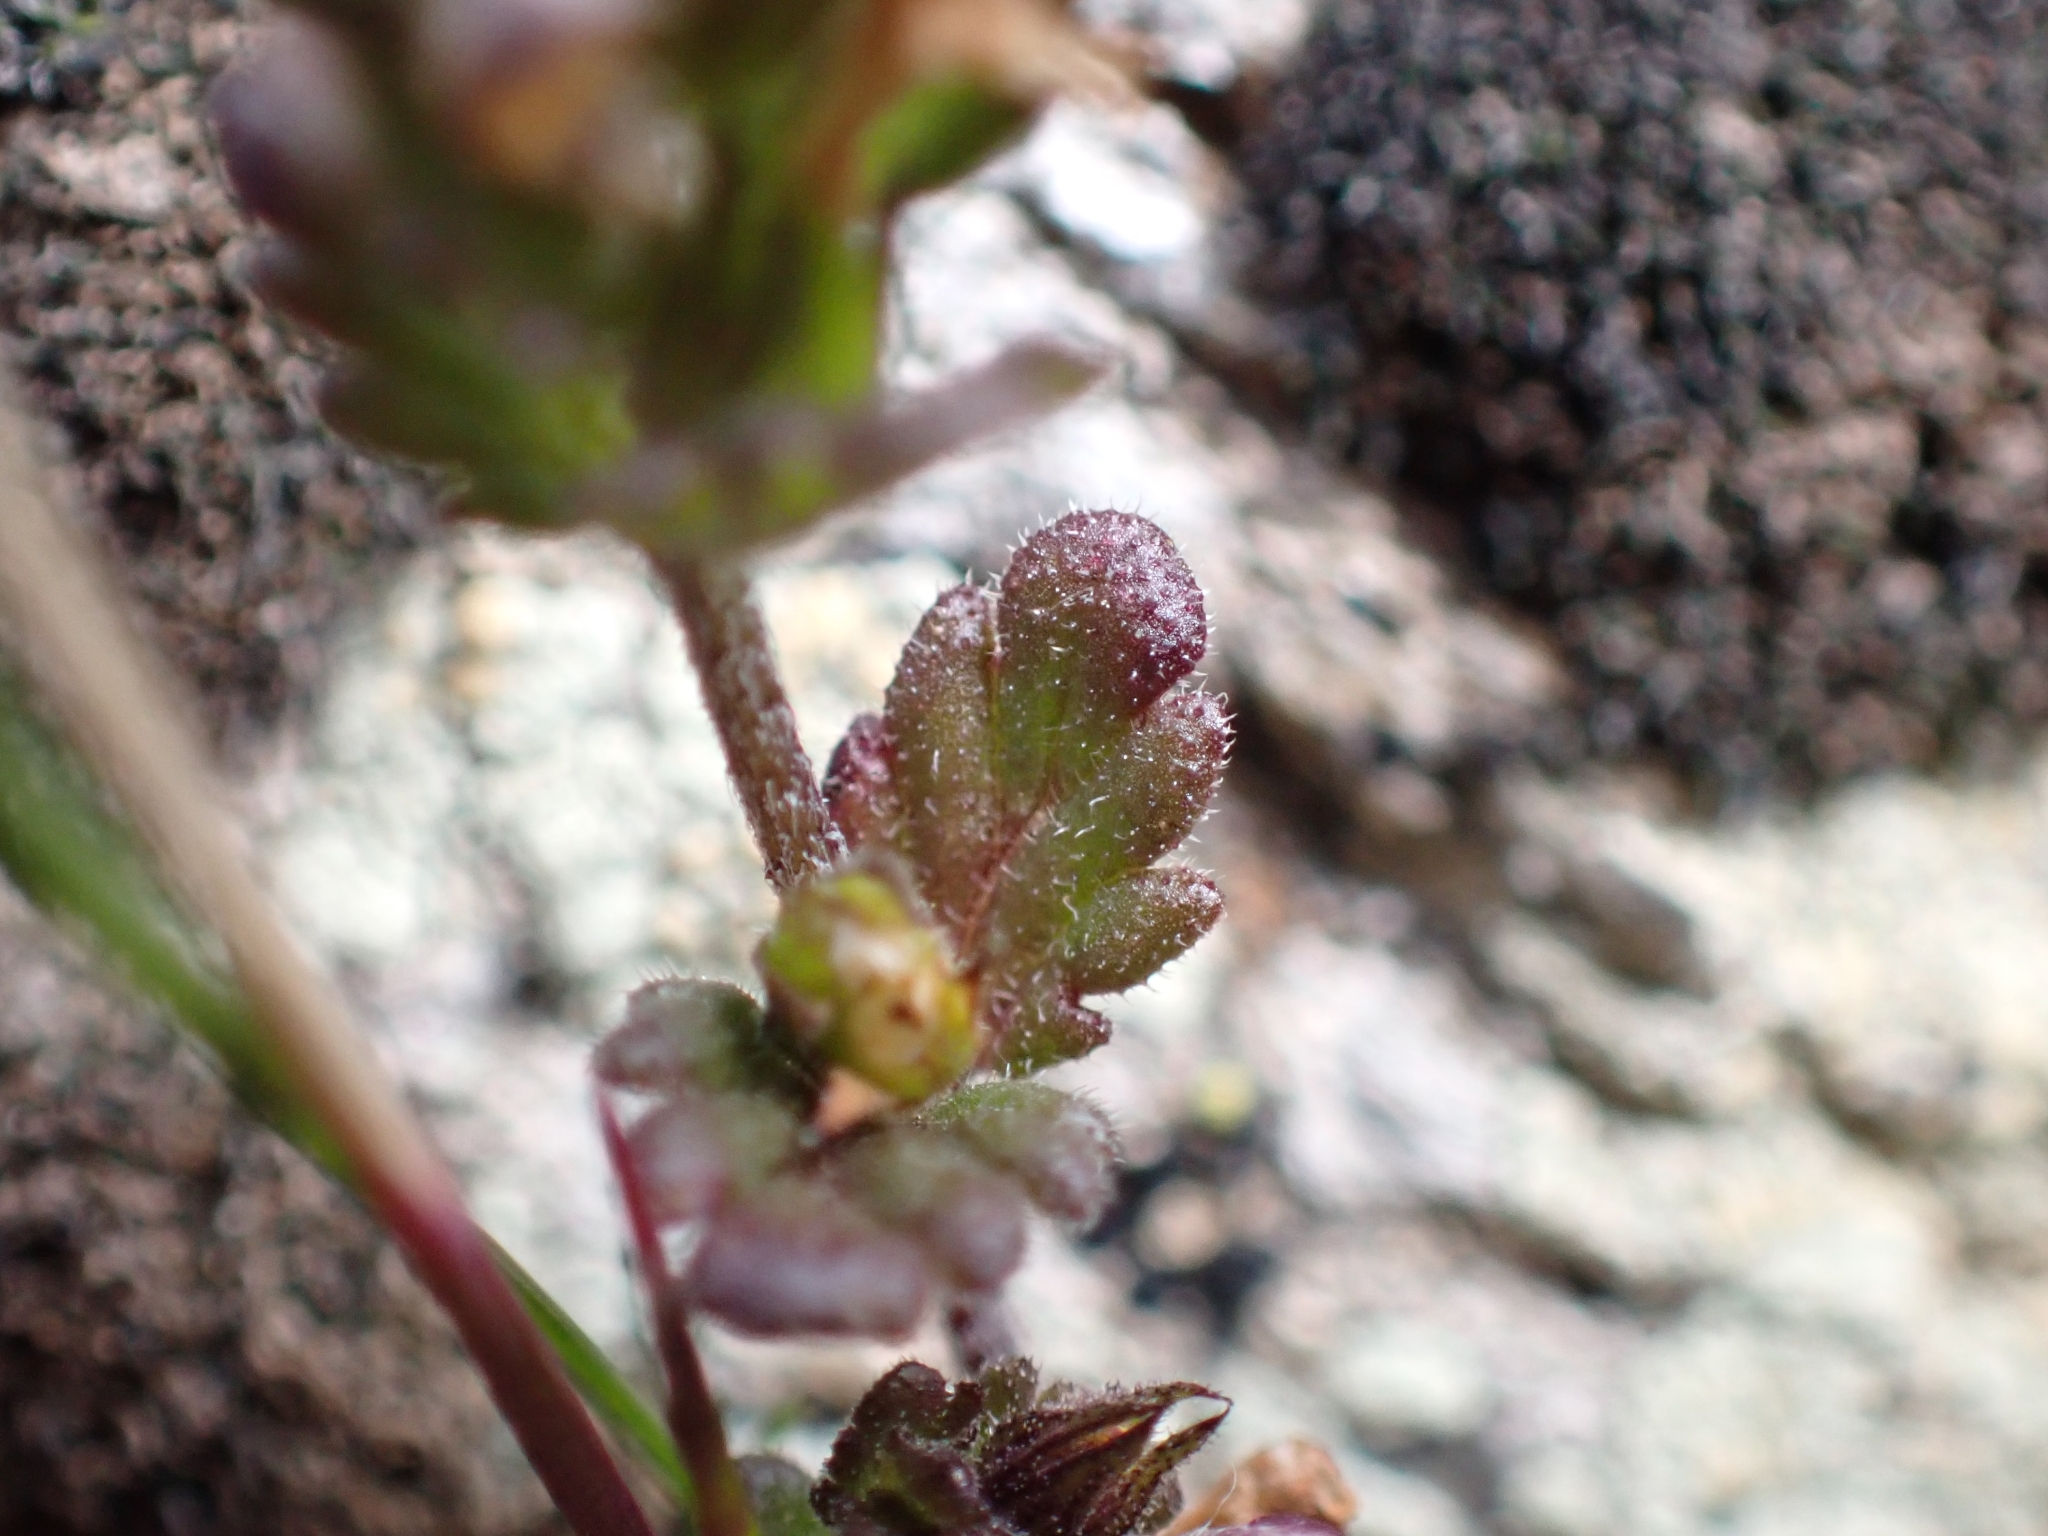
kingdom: Plantae
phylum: Tracheophyta
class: Magnoliopsida
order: Lamiales
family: Orobanchaceae
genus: Euphrasia
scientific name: Euphrasia minima
